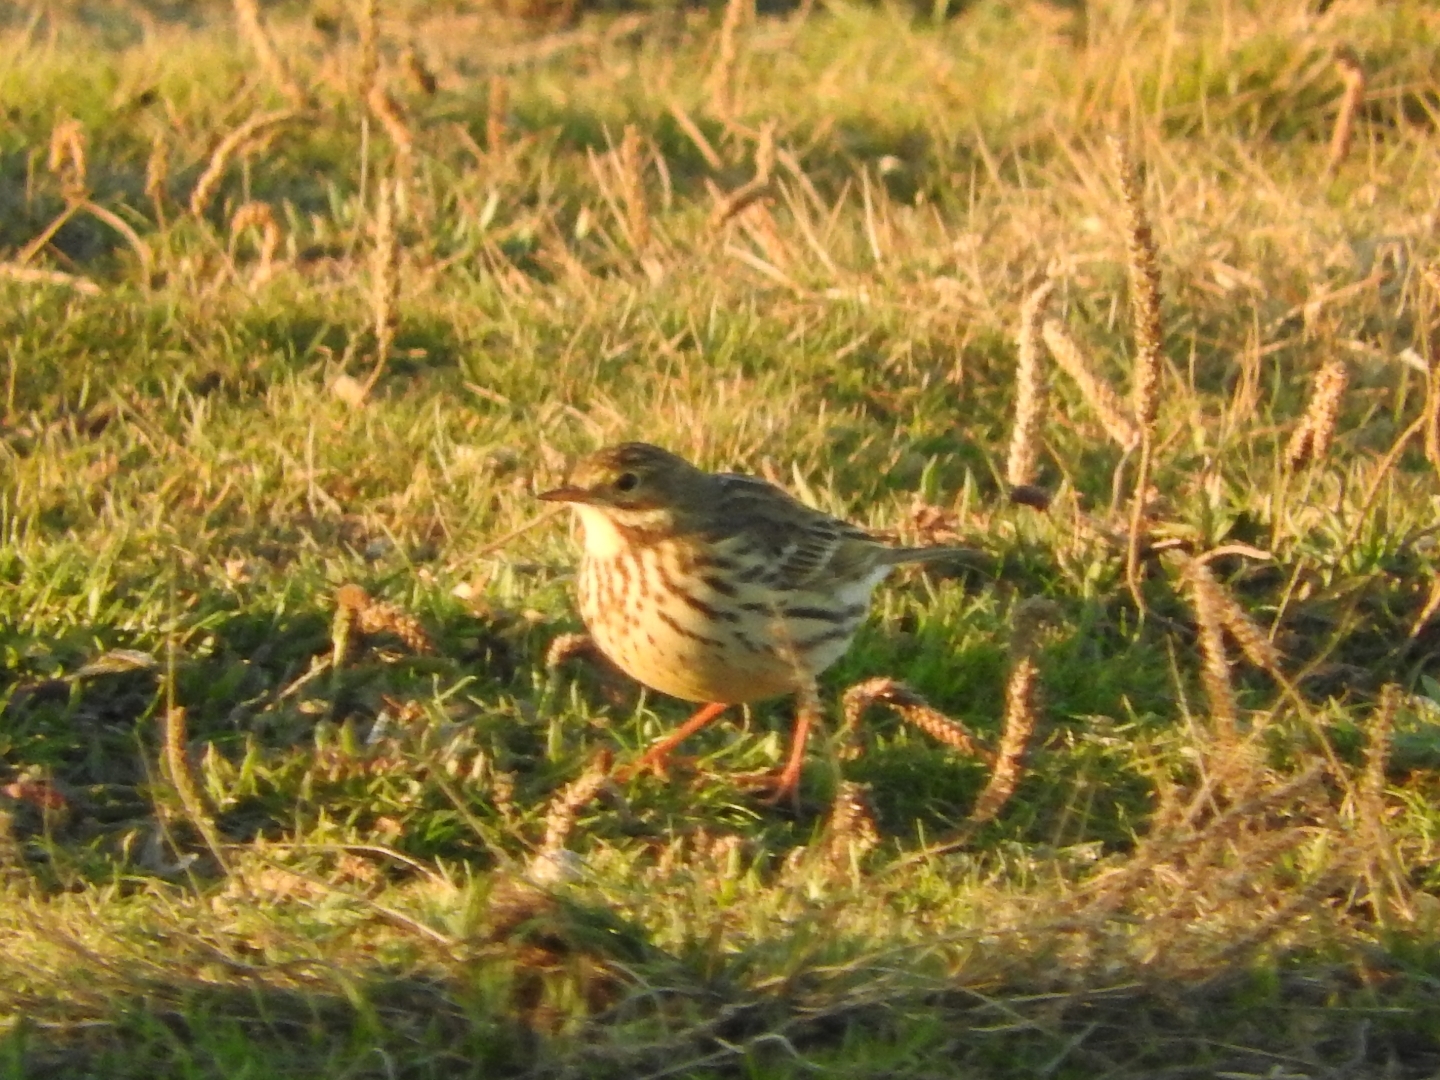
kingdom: Animalia
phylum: Chordata
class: Aves
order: Passeriformes
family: Motacillidae
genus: Anthus
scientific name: Anthus pratensis
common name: Meadow pipit
